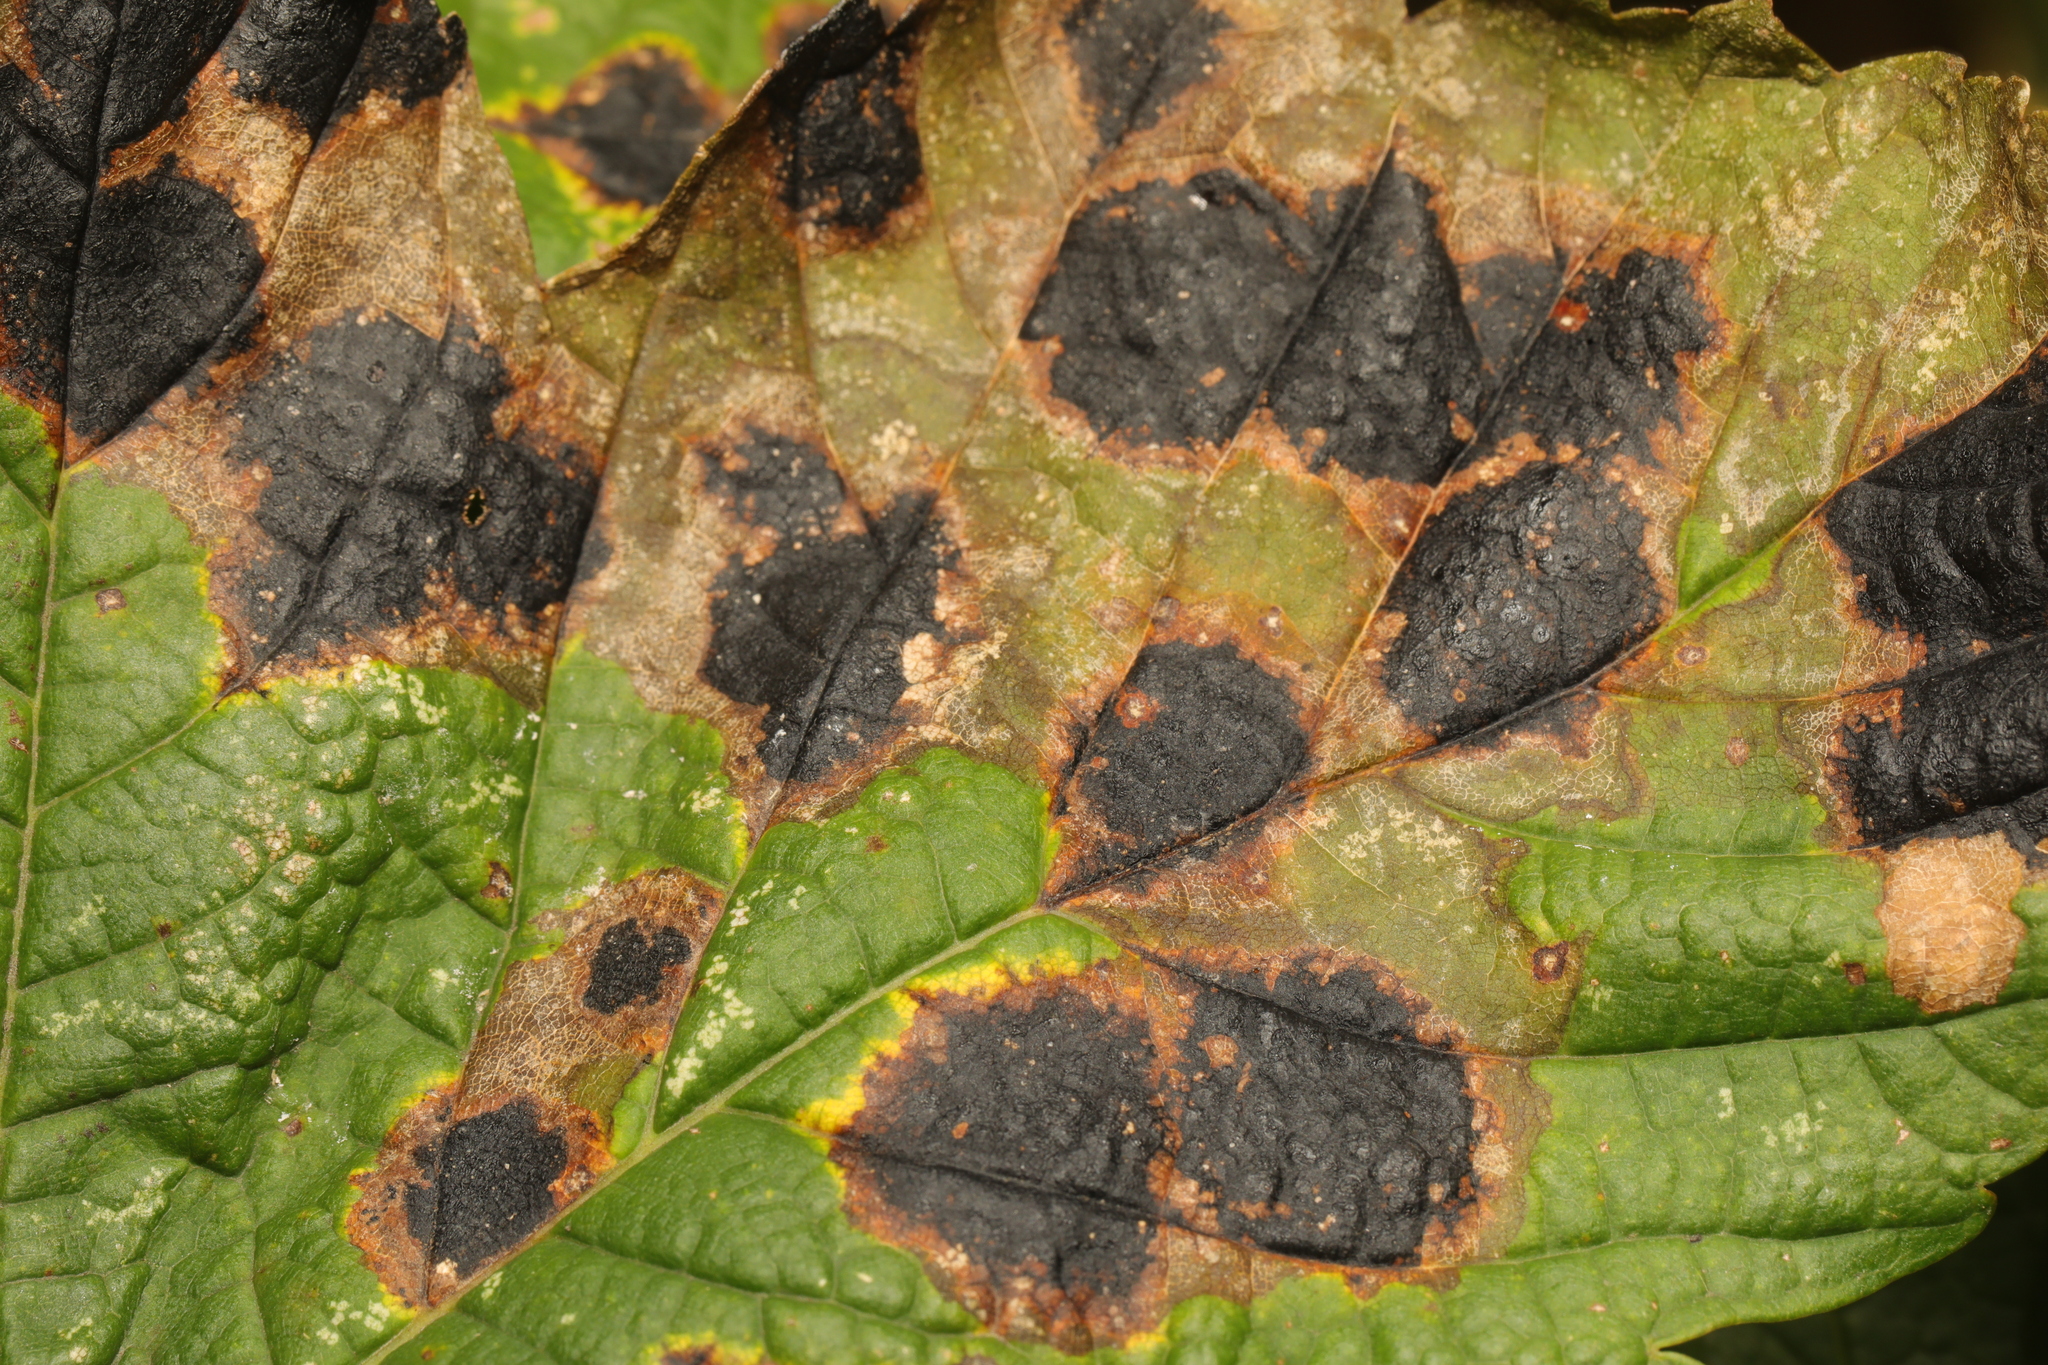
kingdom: Fungi
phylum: Ascomycota
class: Leotiomycetes
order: Rhytismatales
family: Rhytismataceae
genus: Rhytisma
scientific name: Rhytisma acerinum
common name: European tar spot
